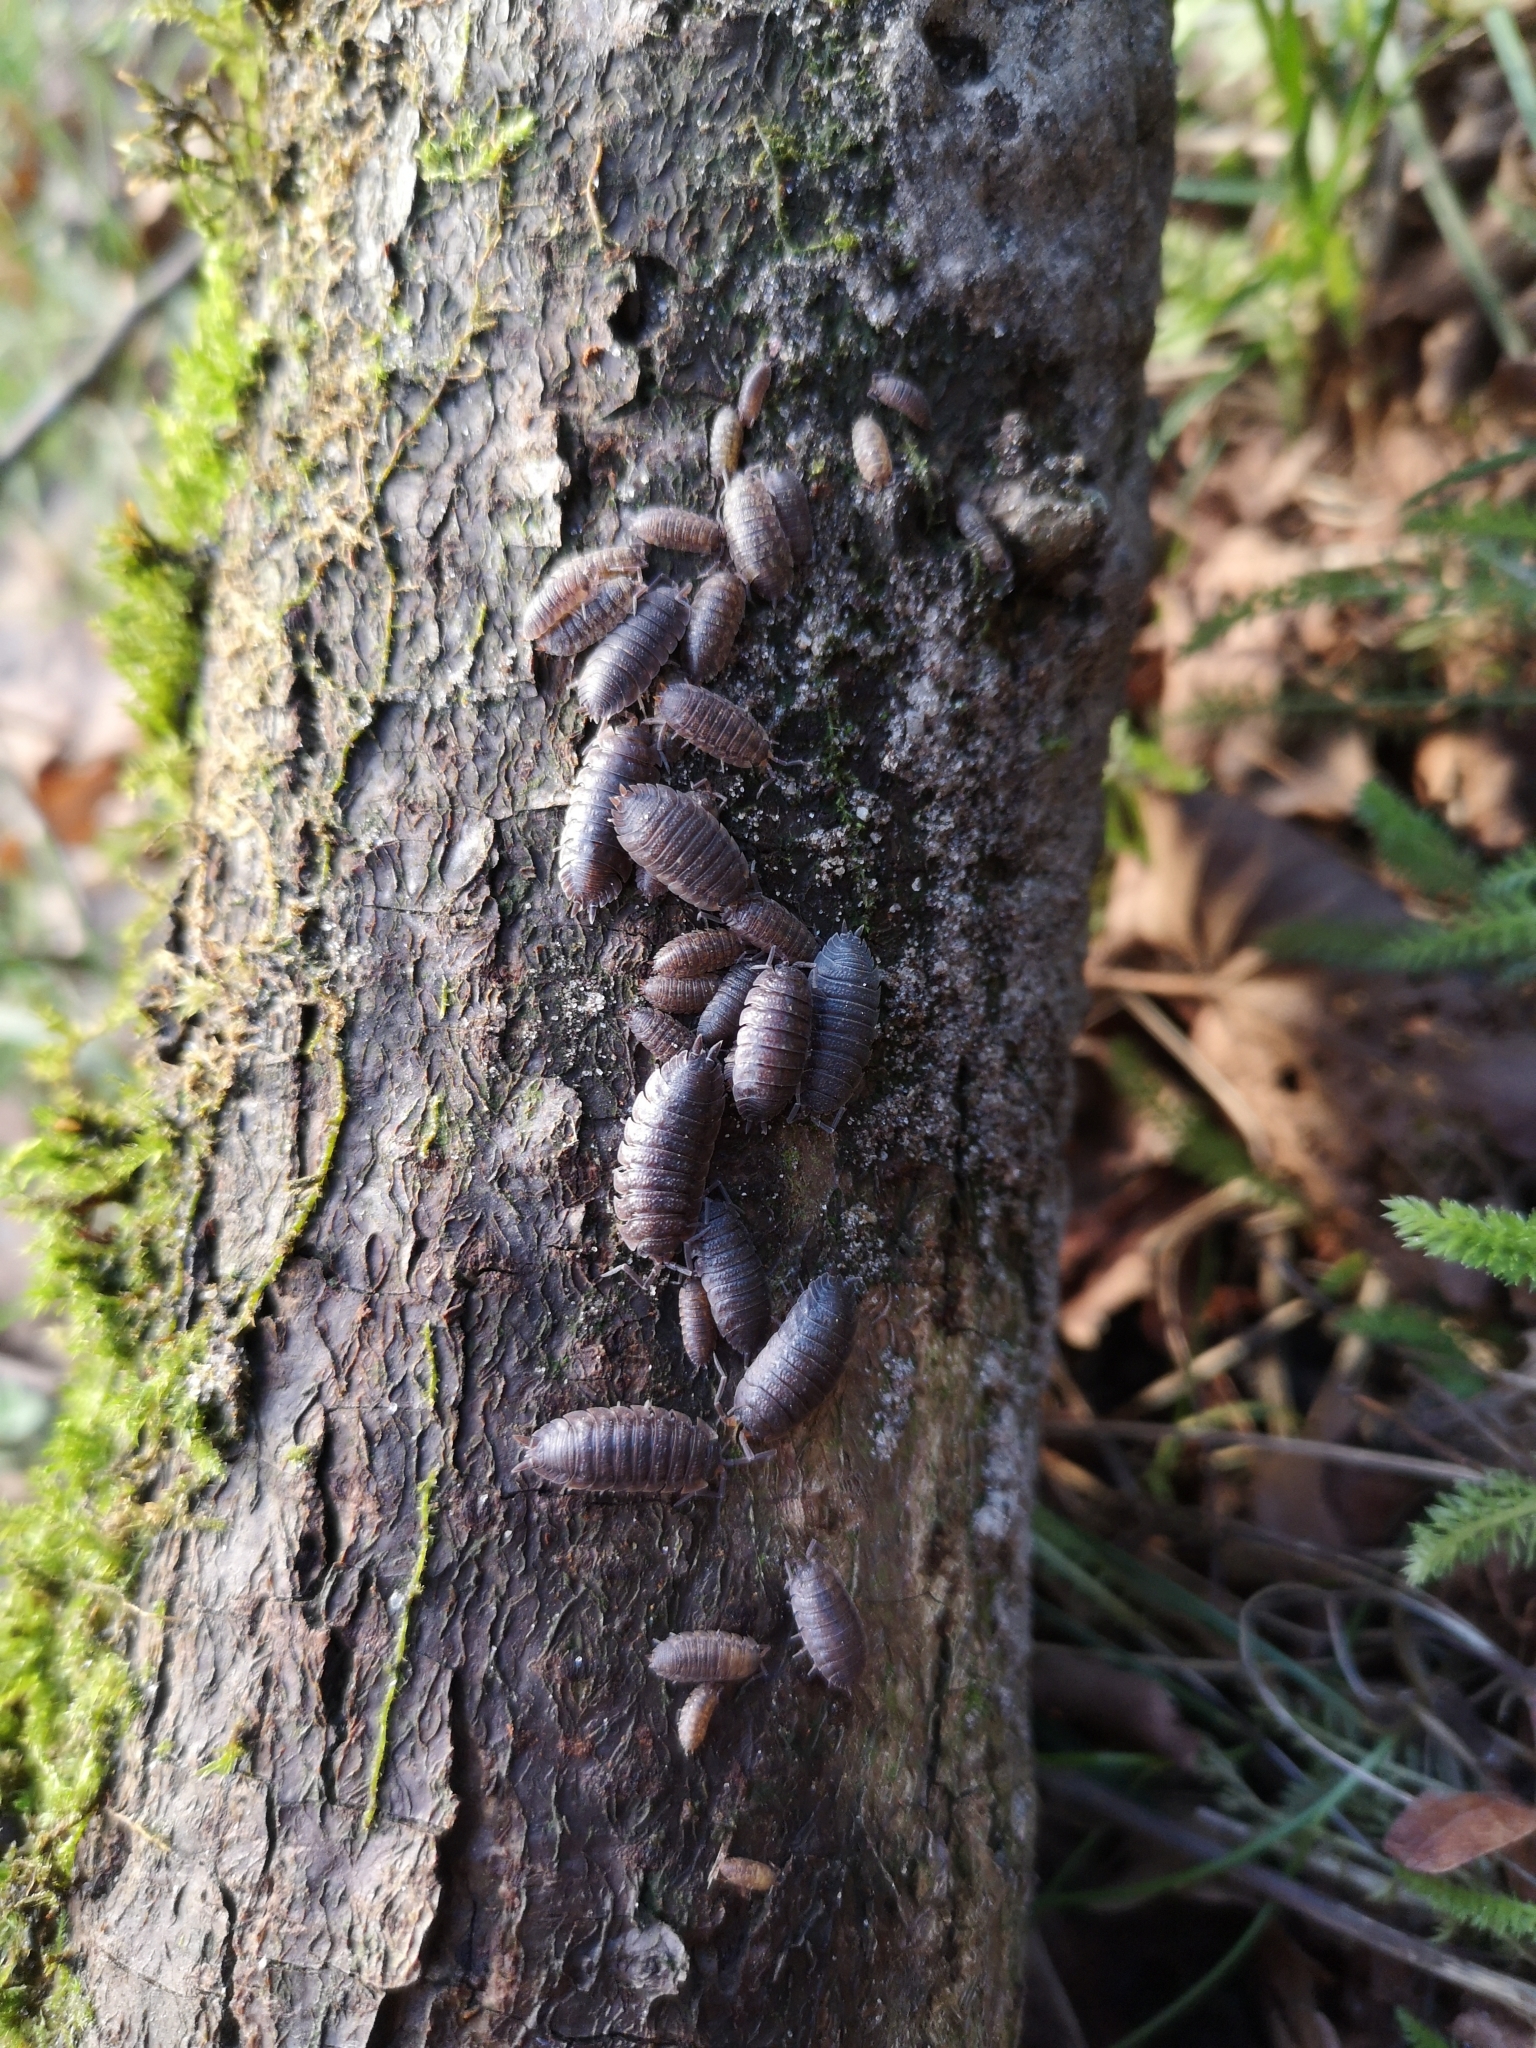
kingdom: Animalia
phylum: Arthropoda
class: Malacostraca
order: Isopoda
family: Porcellionidae
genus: Porcellio
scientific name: Porcellio scaber
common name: Common rough woodlouse
